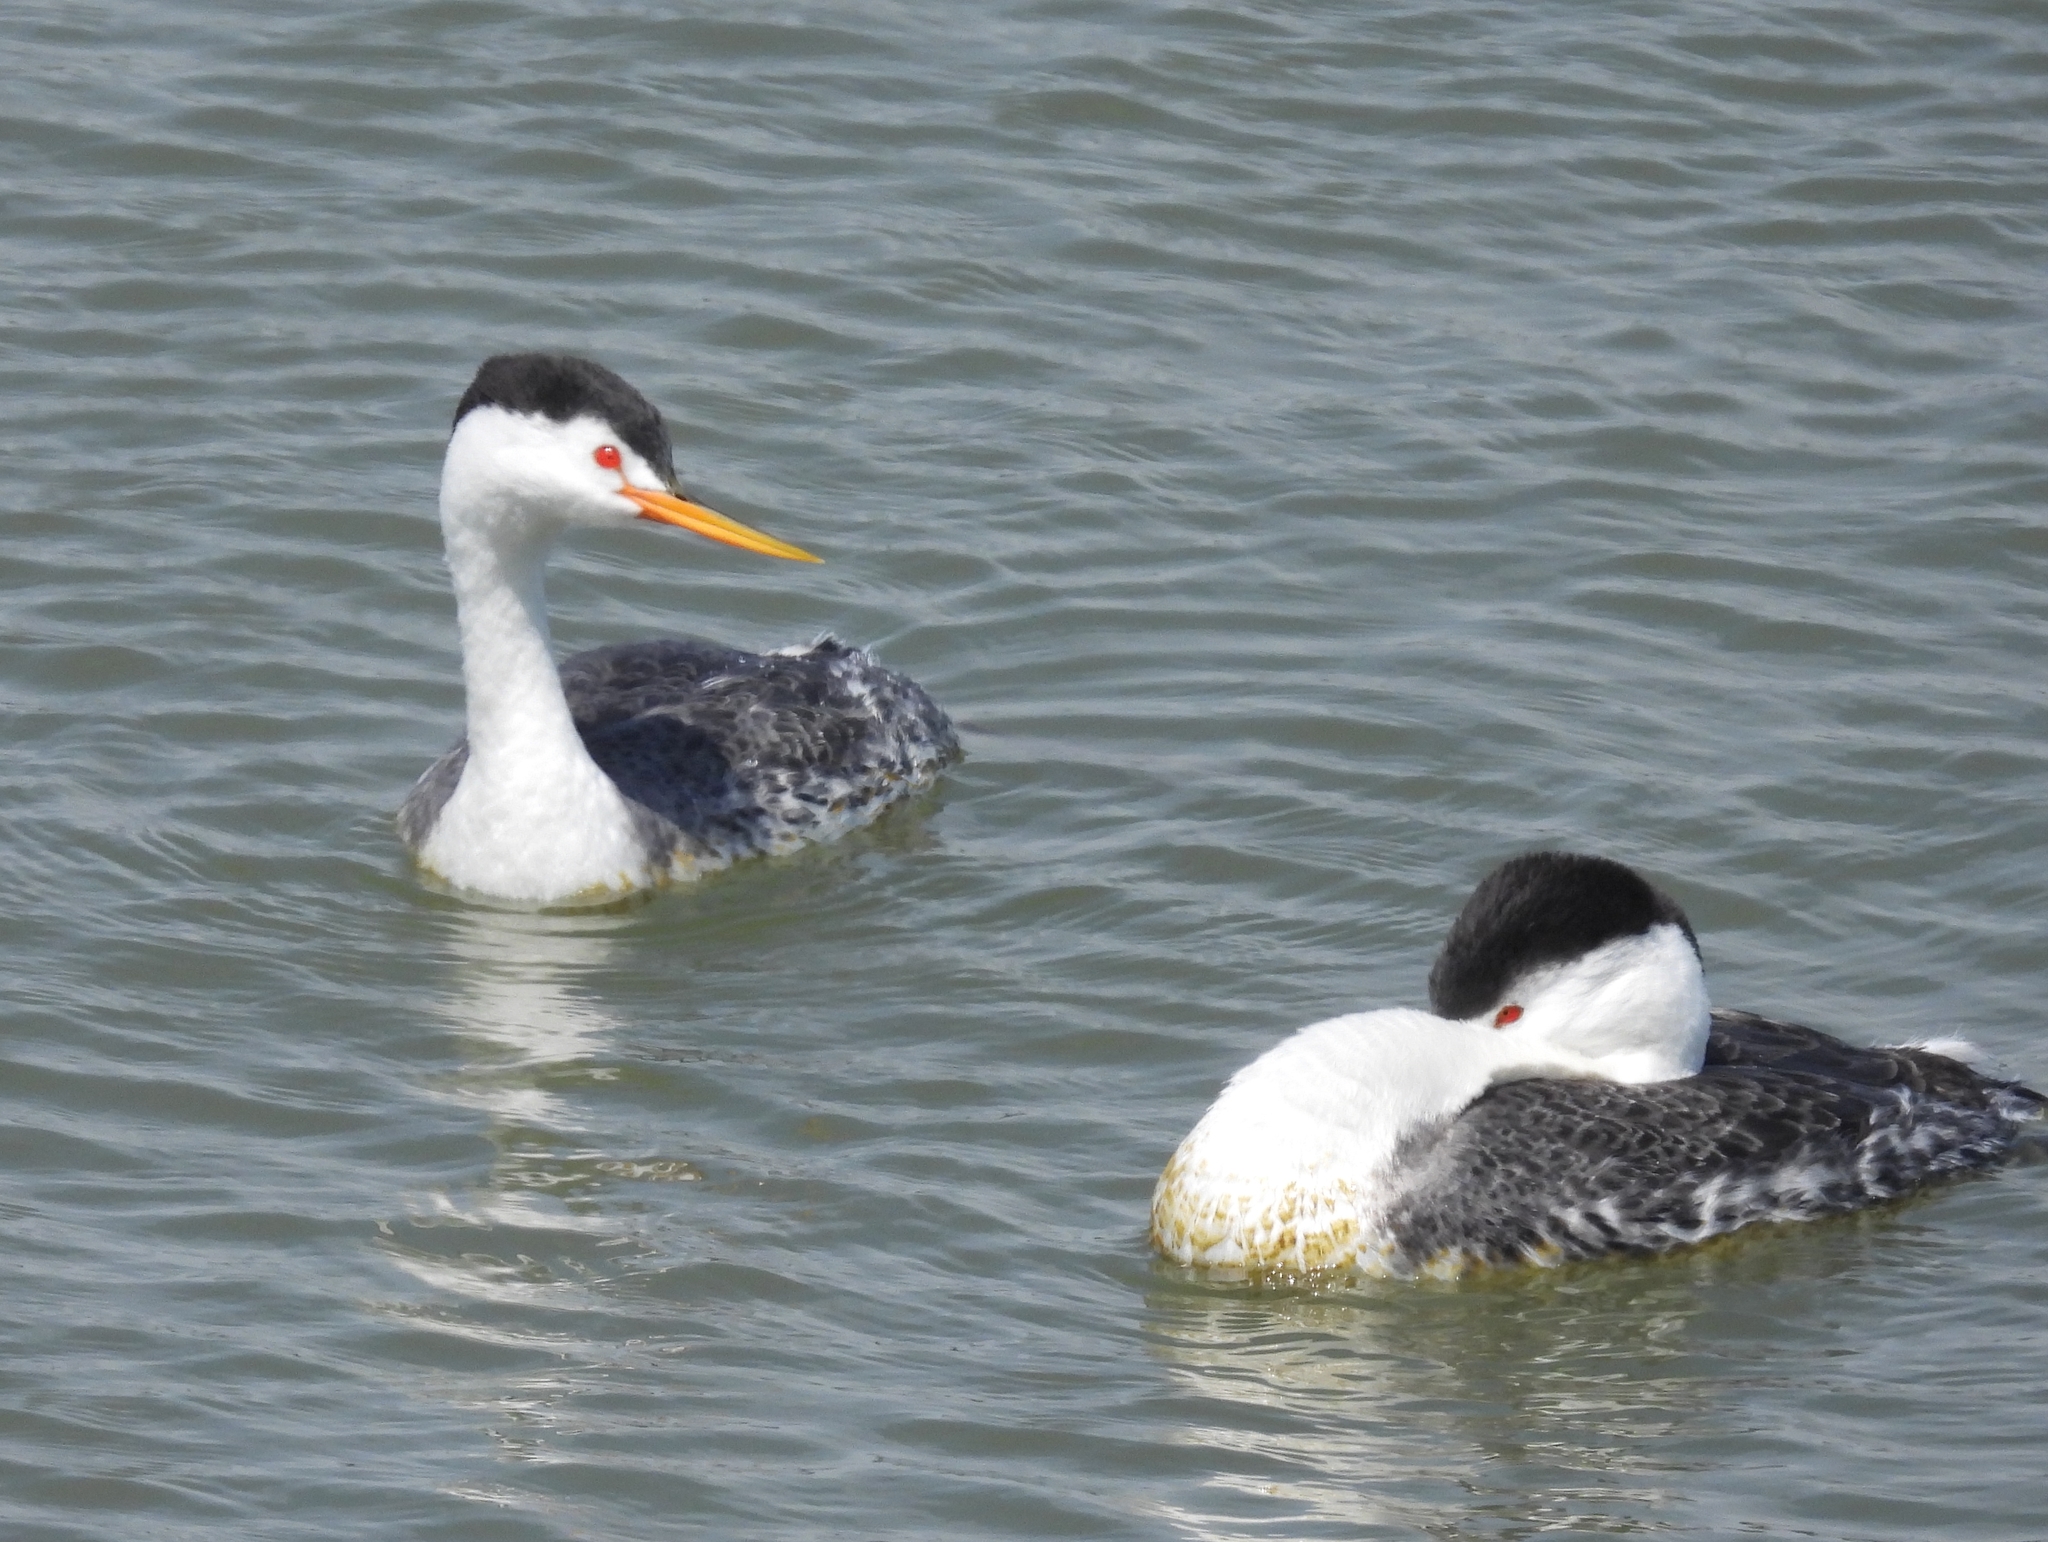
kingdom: Animalia
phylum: Chordata
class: Aves
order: Podicipediformes
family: Podicipedidae
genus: Aechmophorus
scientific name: Aechmophorus clarkii
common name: Clark's grebe
